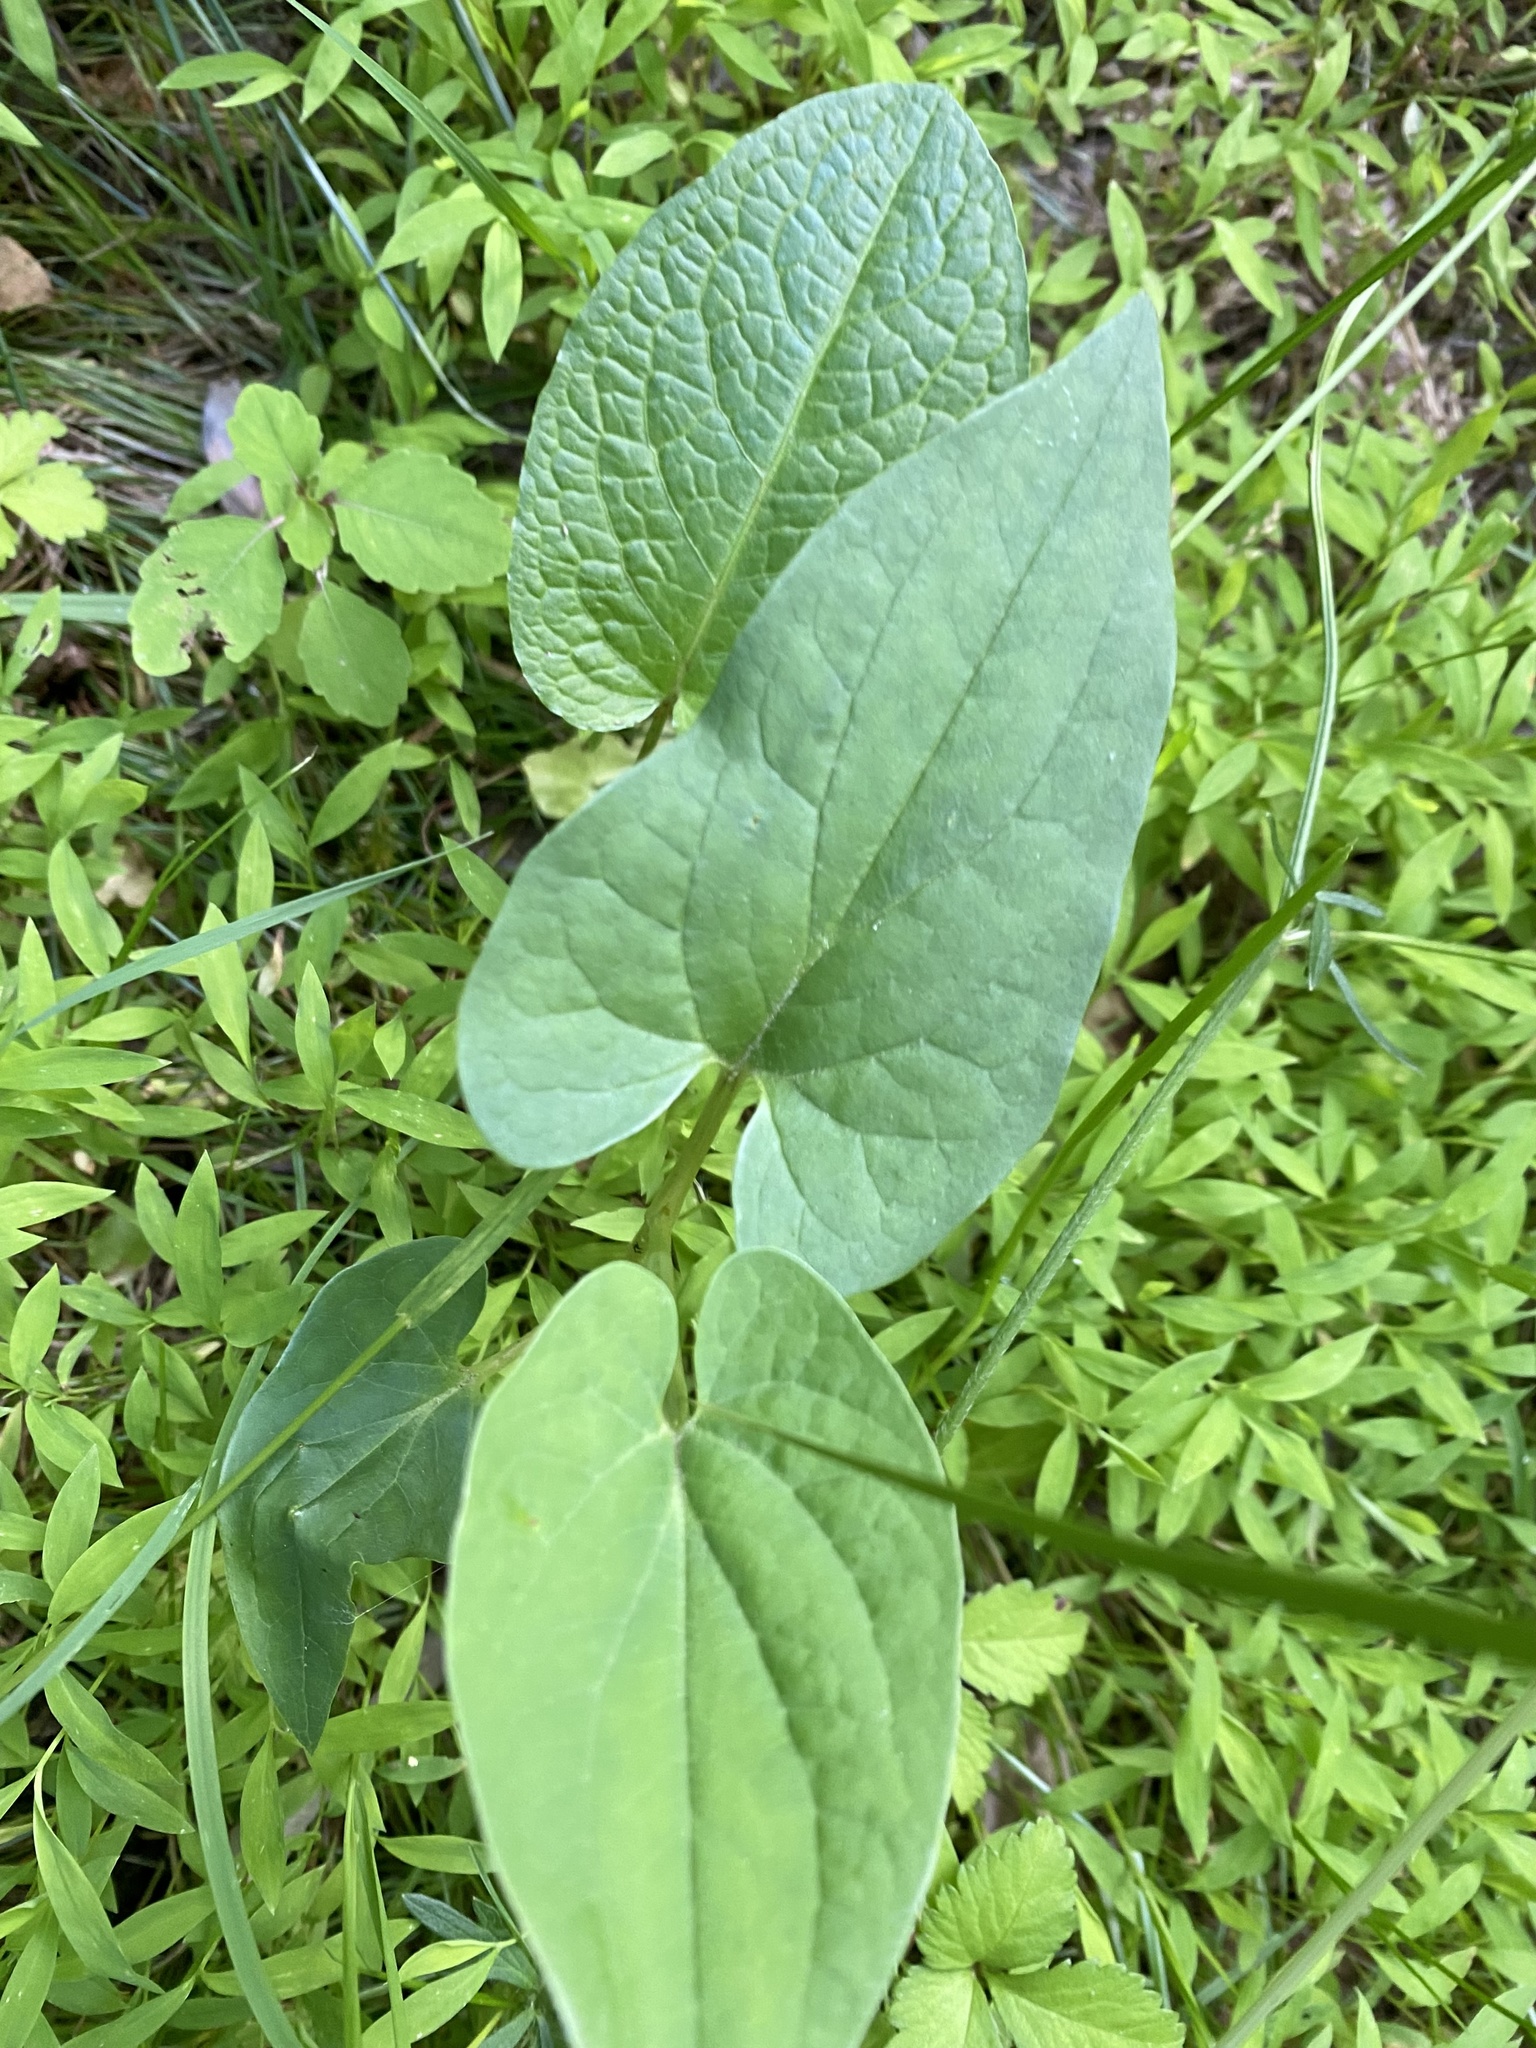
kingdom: Plantae
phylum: Tracheophyta
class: Magnoliopsida
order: Piperales
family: Saururaceae
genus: Saururus
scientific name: Saururus cernuus
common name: Lizard's-tail
